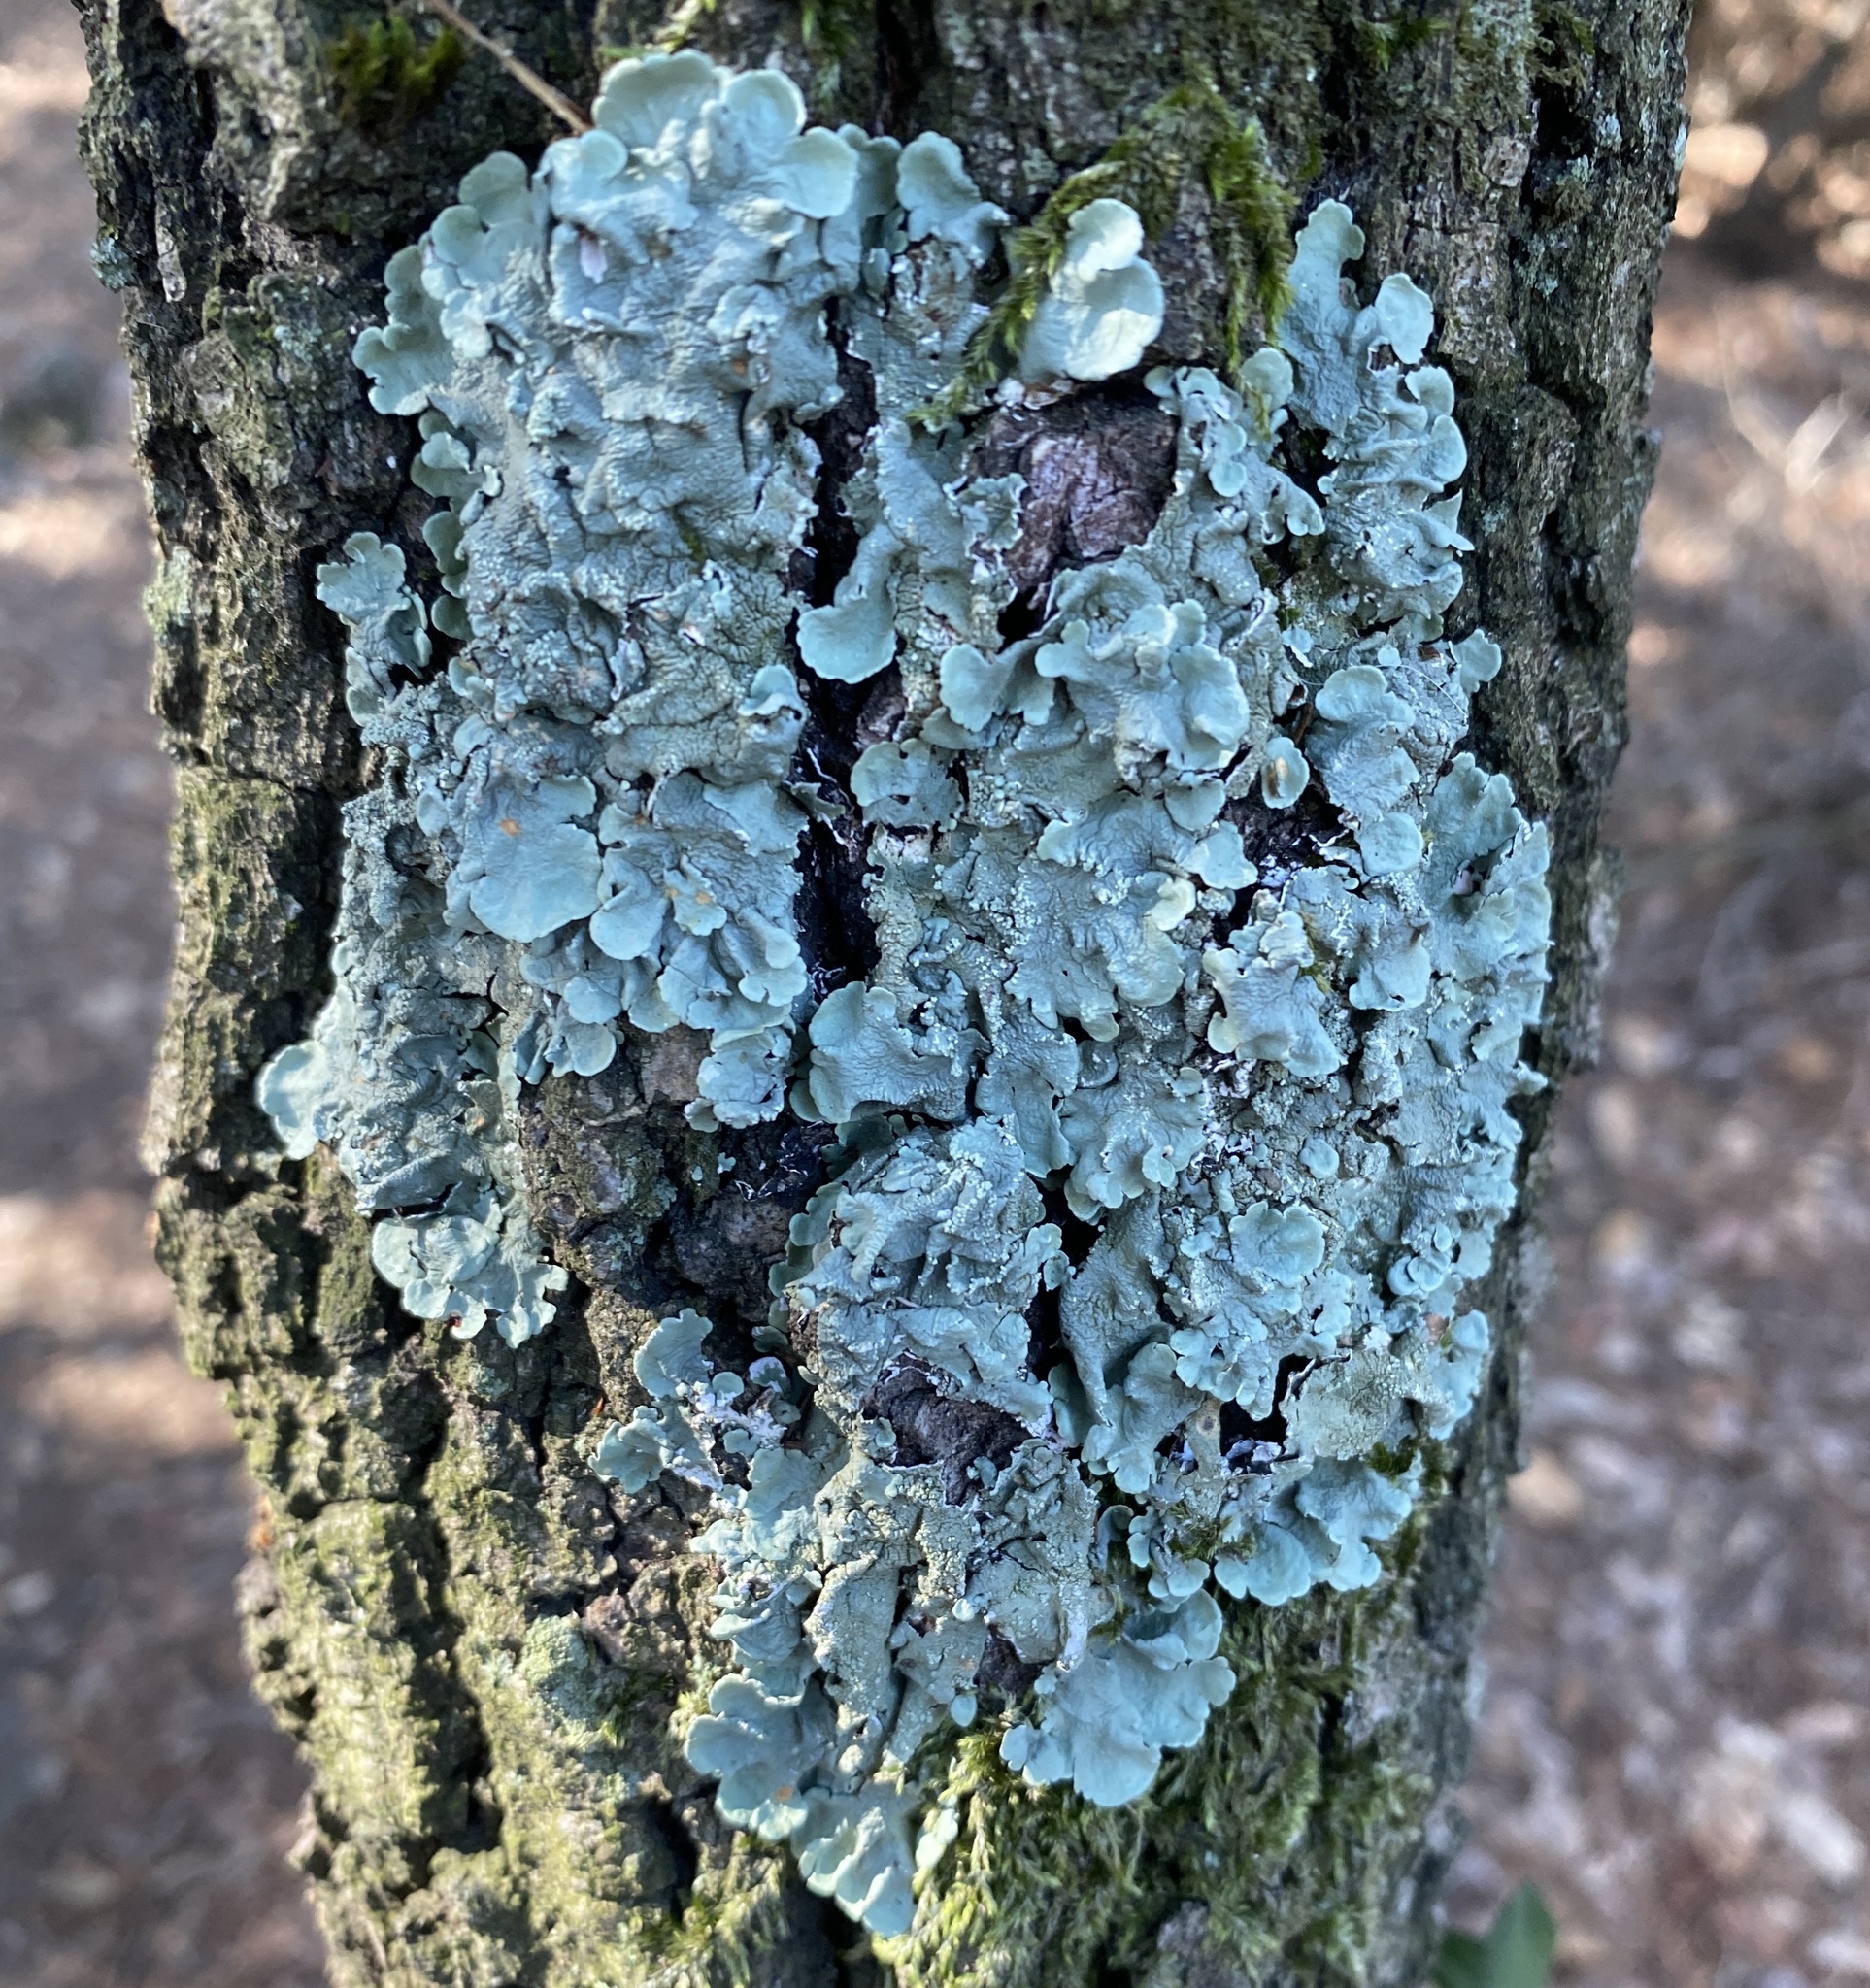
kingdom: Fungi
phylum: Ascomycota
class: Lecanoromycetes
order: Lecanorales
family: Parmeliaceae
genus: Flavoparmelia
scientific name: Flavoparmelia caperata
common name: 40-mile per hour lichen
